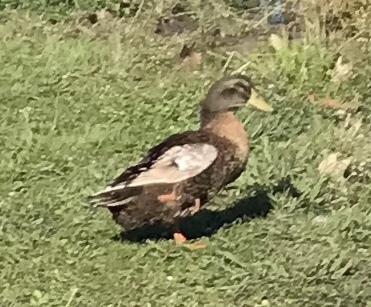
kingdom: Animalia
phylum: Chordata
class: Aves
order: Anseriformes
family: Anatidae
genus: Anas
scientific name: Anas platyrhynchos
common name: Mallard
